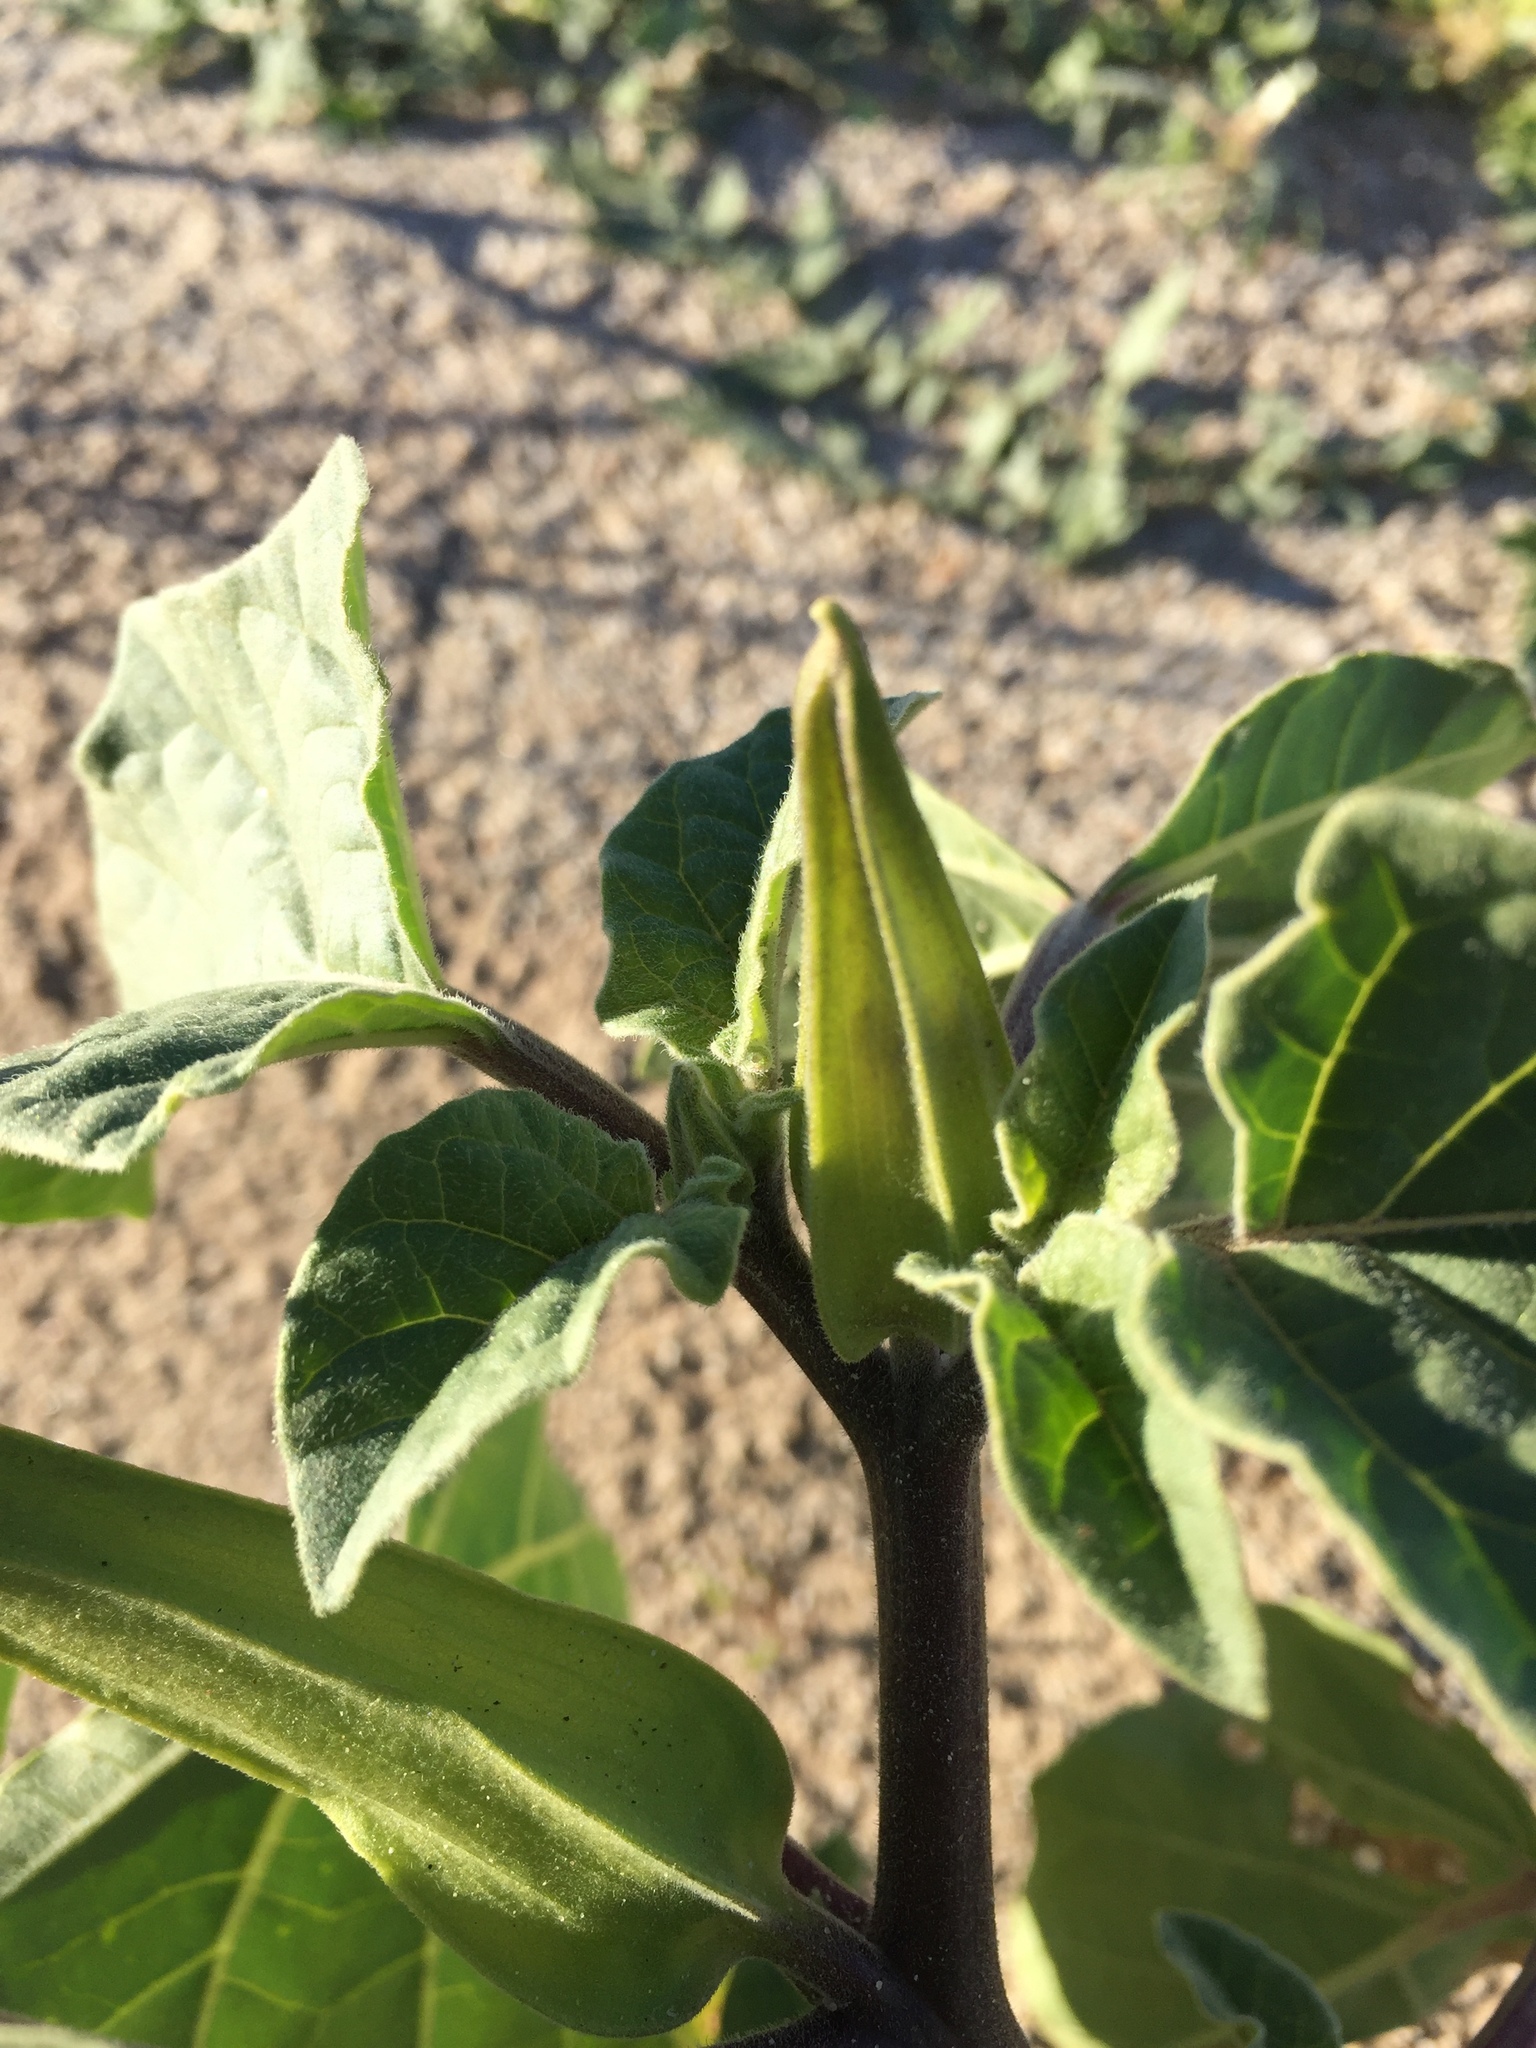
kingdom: Plantae
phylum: Tracheophyta
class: Magnoliopsida
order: Solanales
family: Solanaceae
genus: Datura
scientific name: Datura discolor
